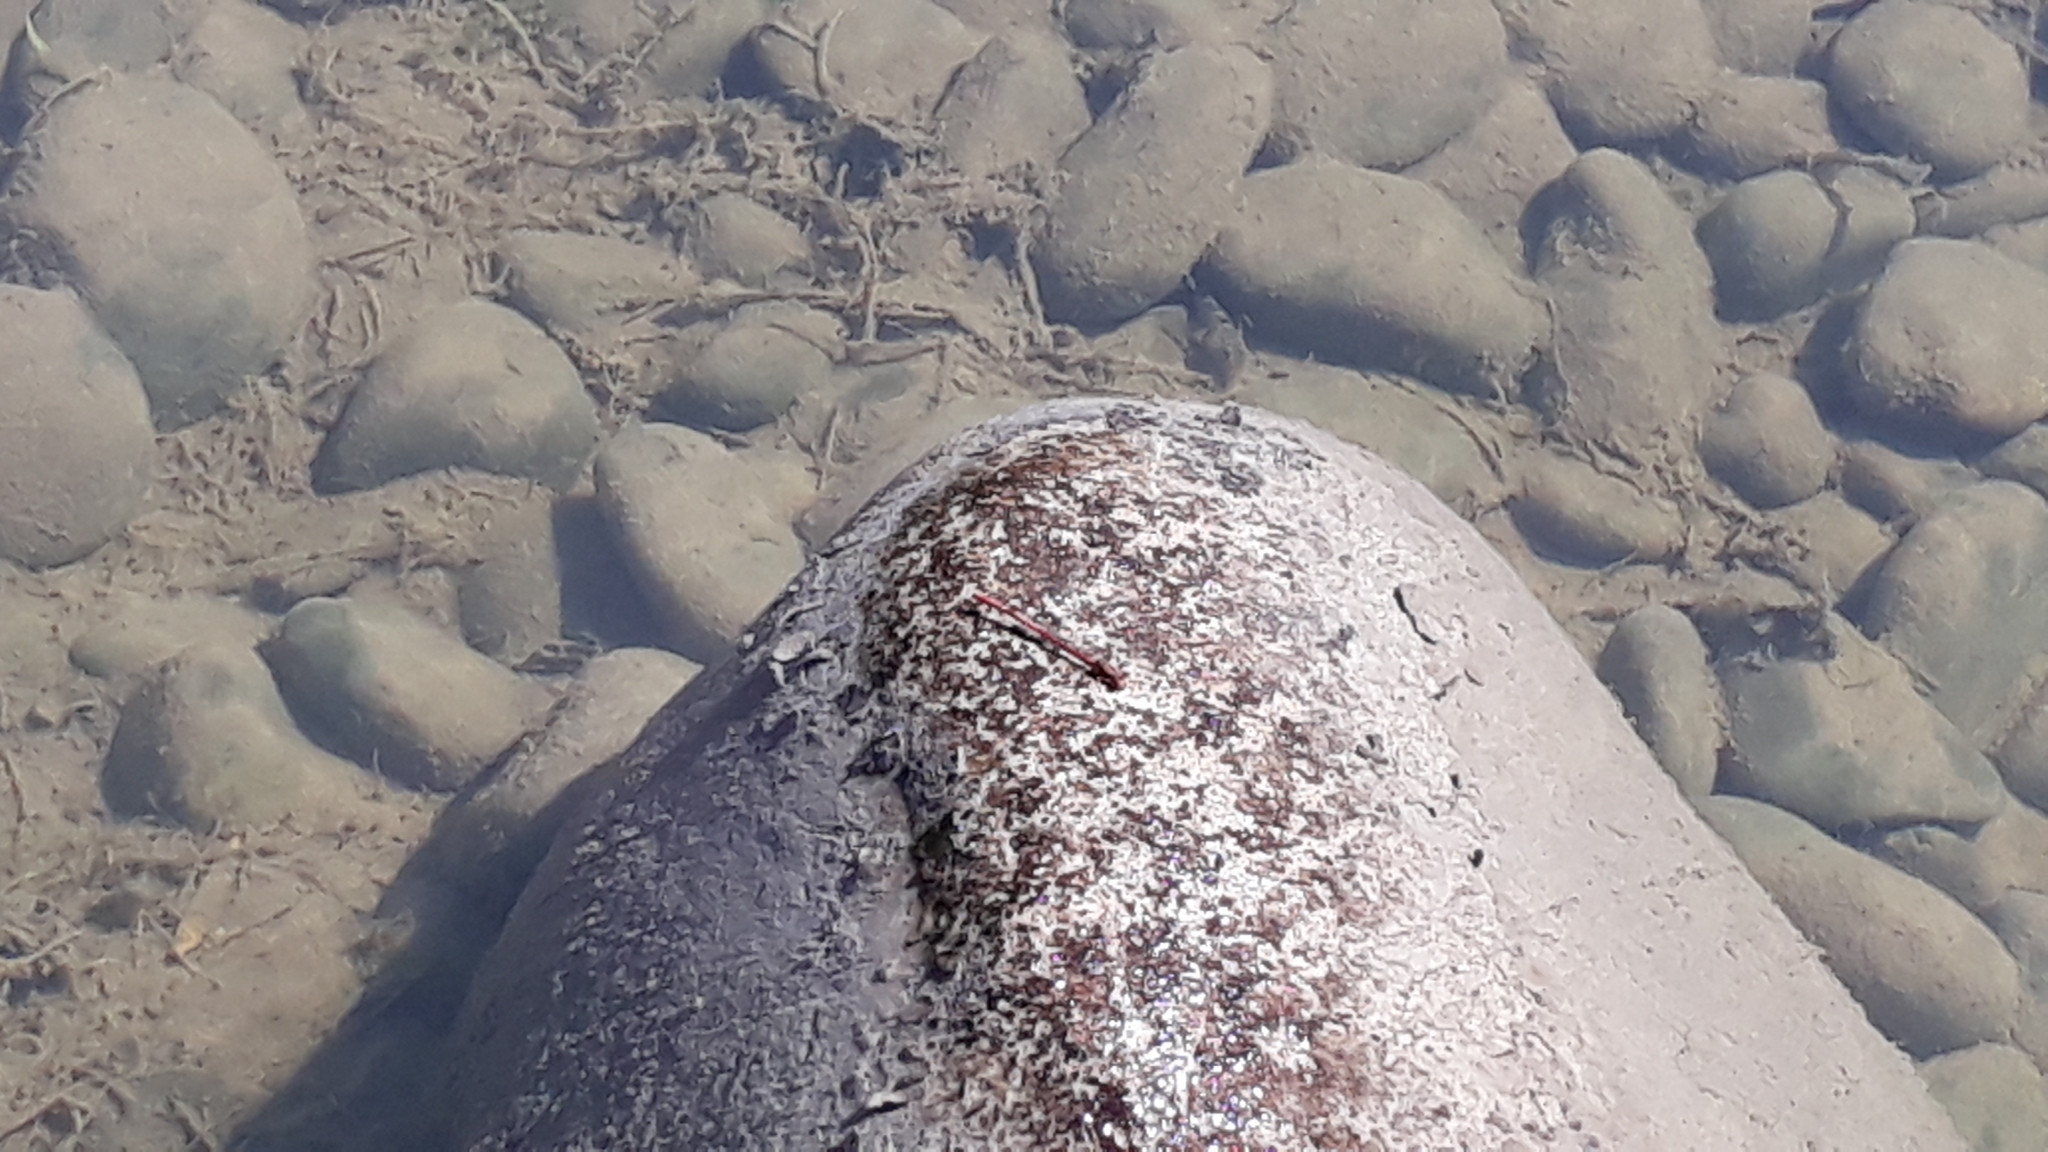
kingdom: Animalia
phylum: Arthropoda
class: Insecta
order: Odonata
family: Coenagrionidae
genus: Xanthocnemis
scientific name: Xanthocnemis zealandica
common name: Common redcoat damselfly
